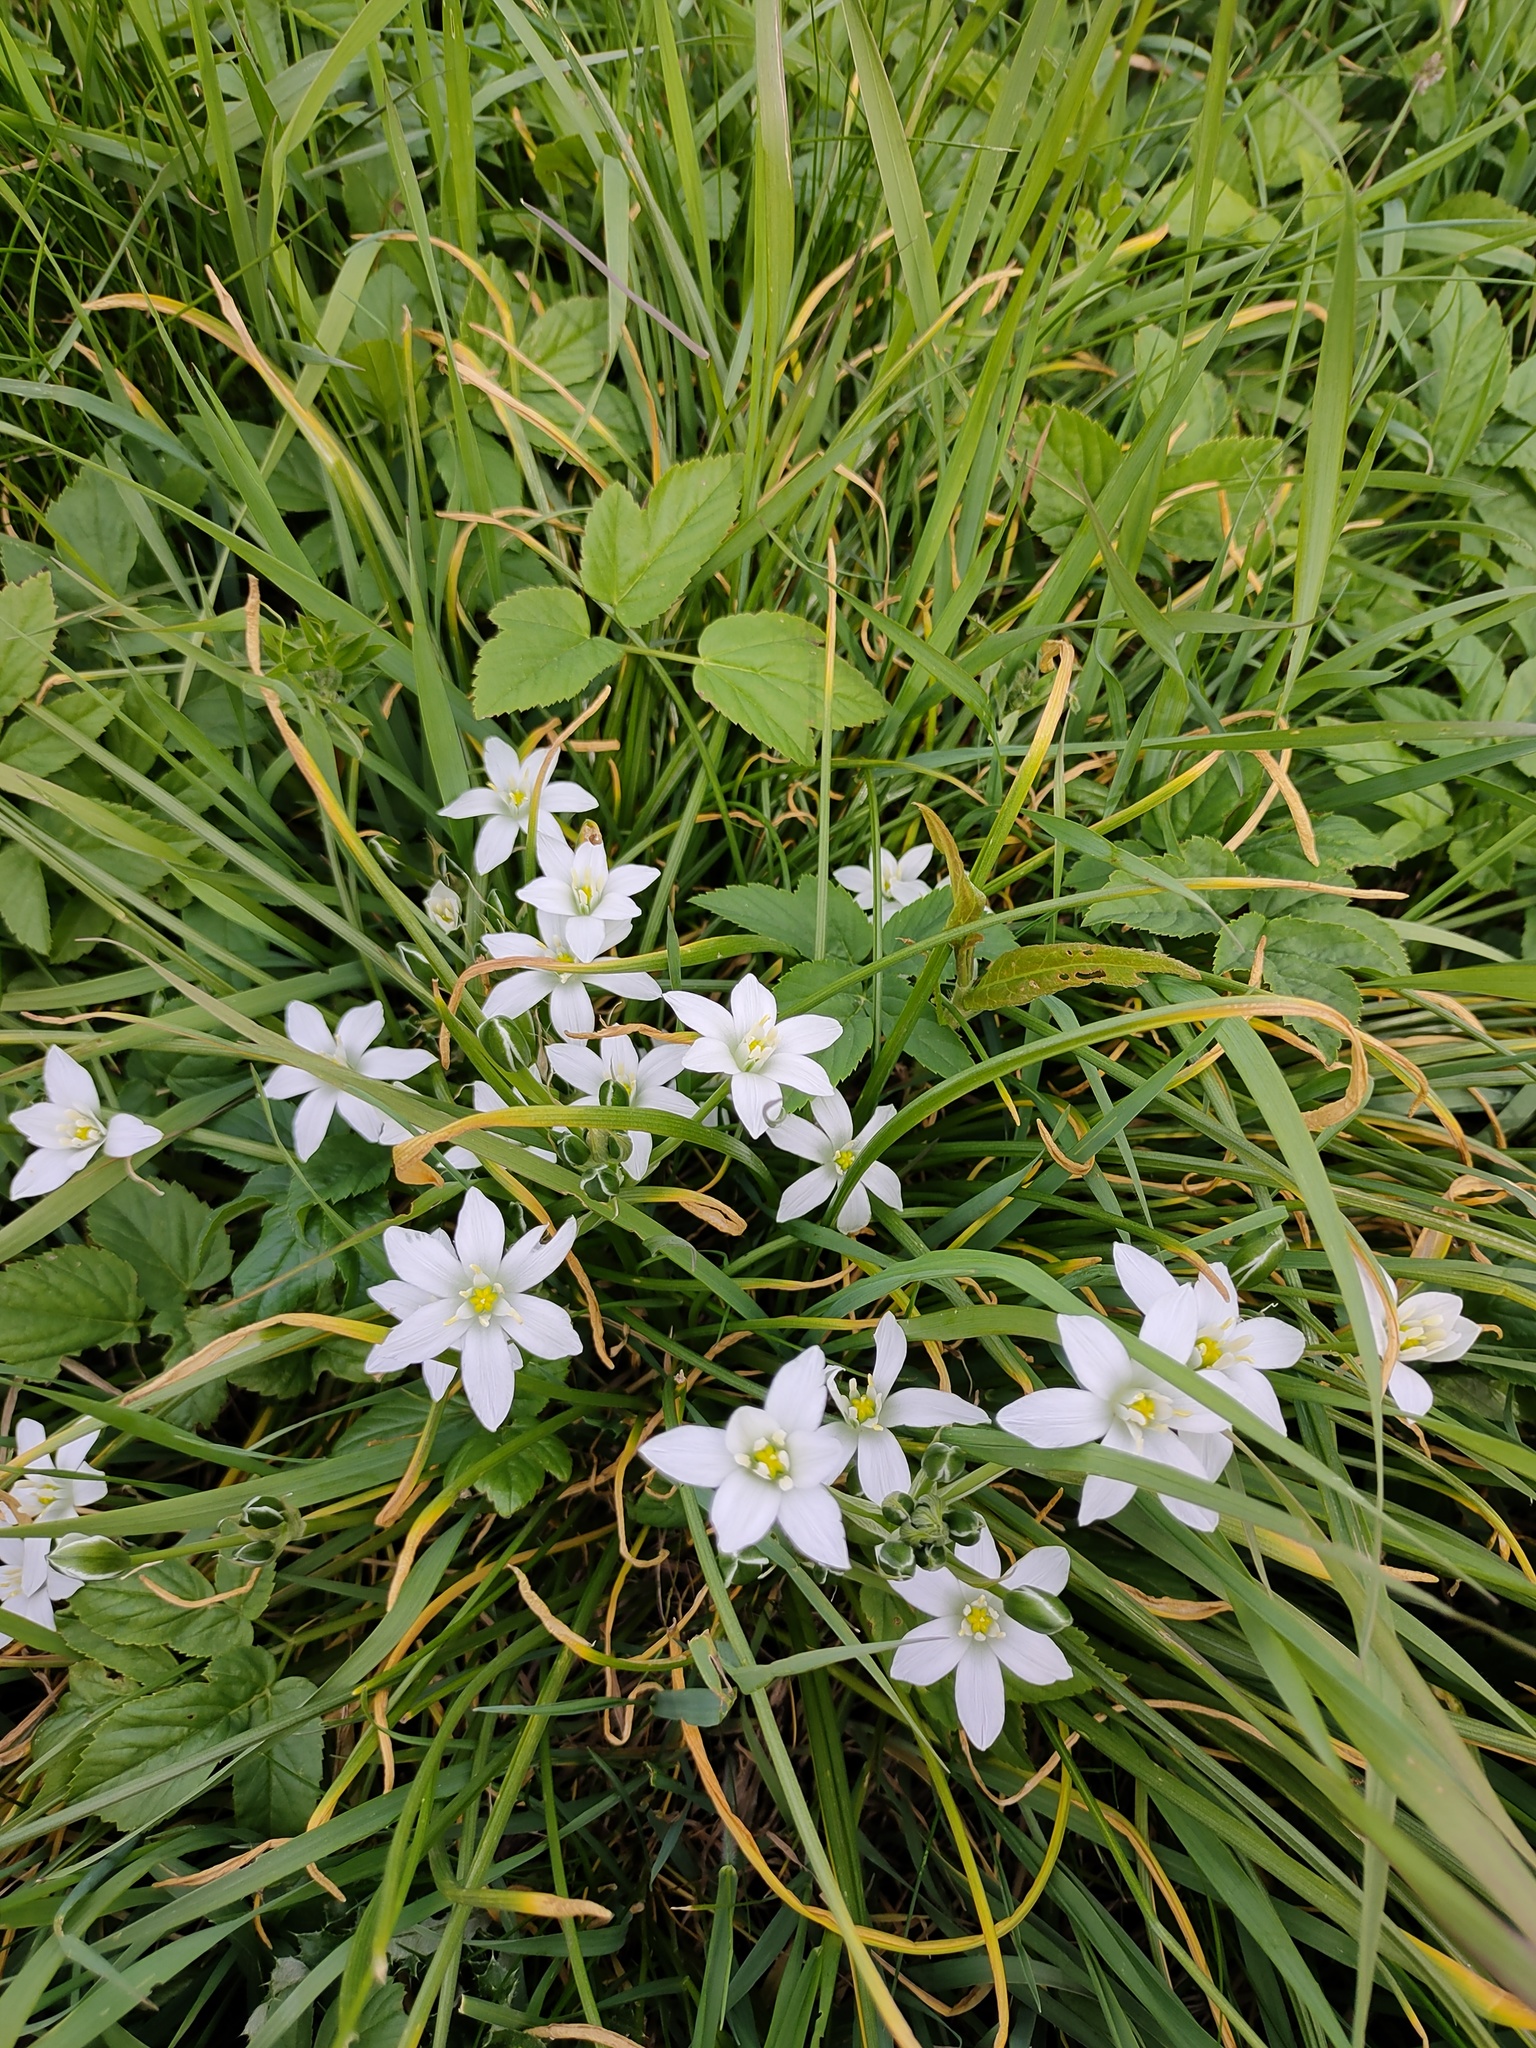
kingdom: Plantae
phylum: Tracheophyta
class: Liliopsida
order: Asparagales
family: Asparagaceae
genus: Ornithogalum
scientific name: Ornithogalum umbellatum
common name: Garden star-of-bethlehem
